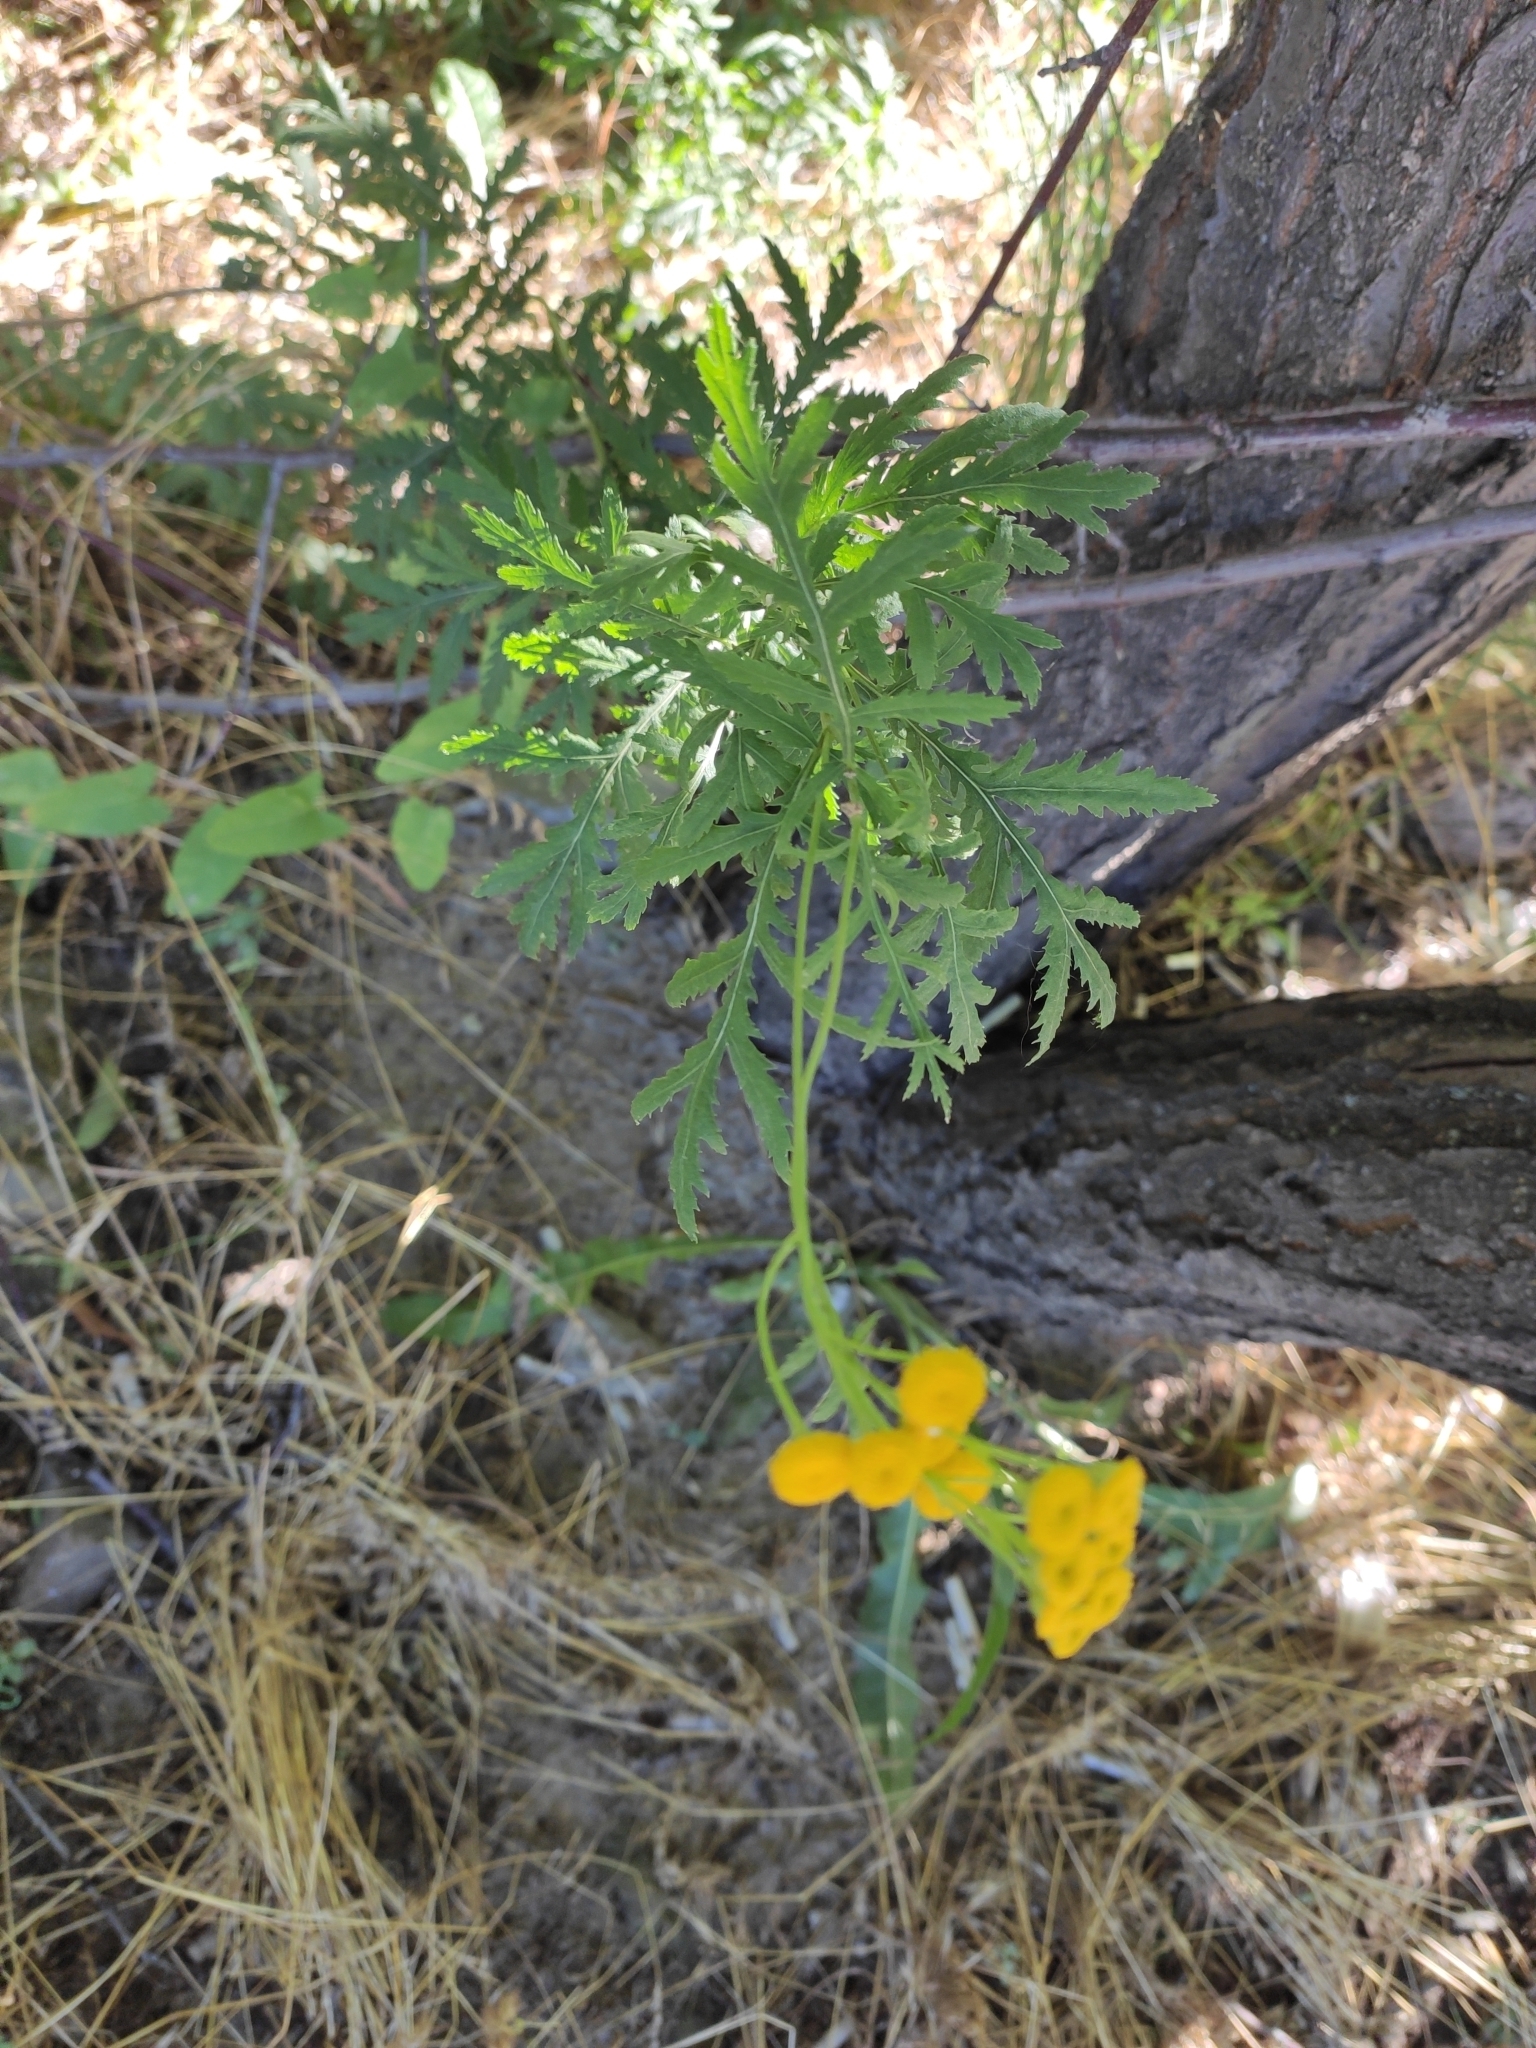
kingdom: Plantae
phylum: Tracheophyta
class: Magnoliopsida
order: Asterales
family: Asteraceae
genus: Tanacetum
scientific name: Tanacetum vulgare
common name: Common tansy
